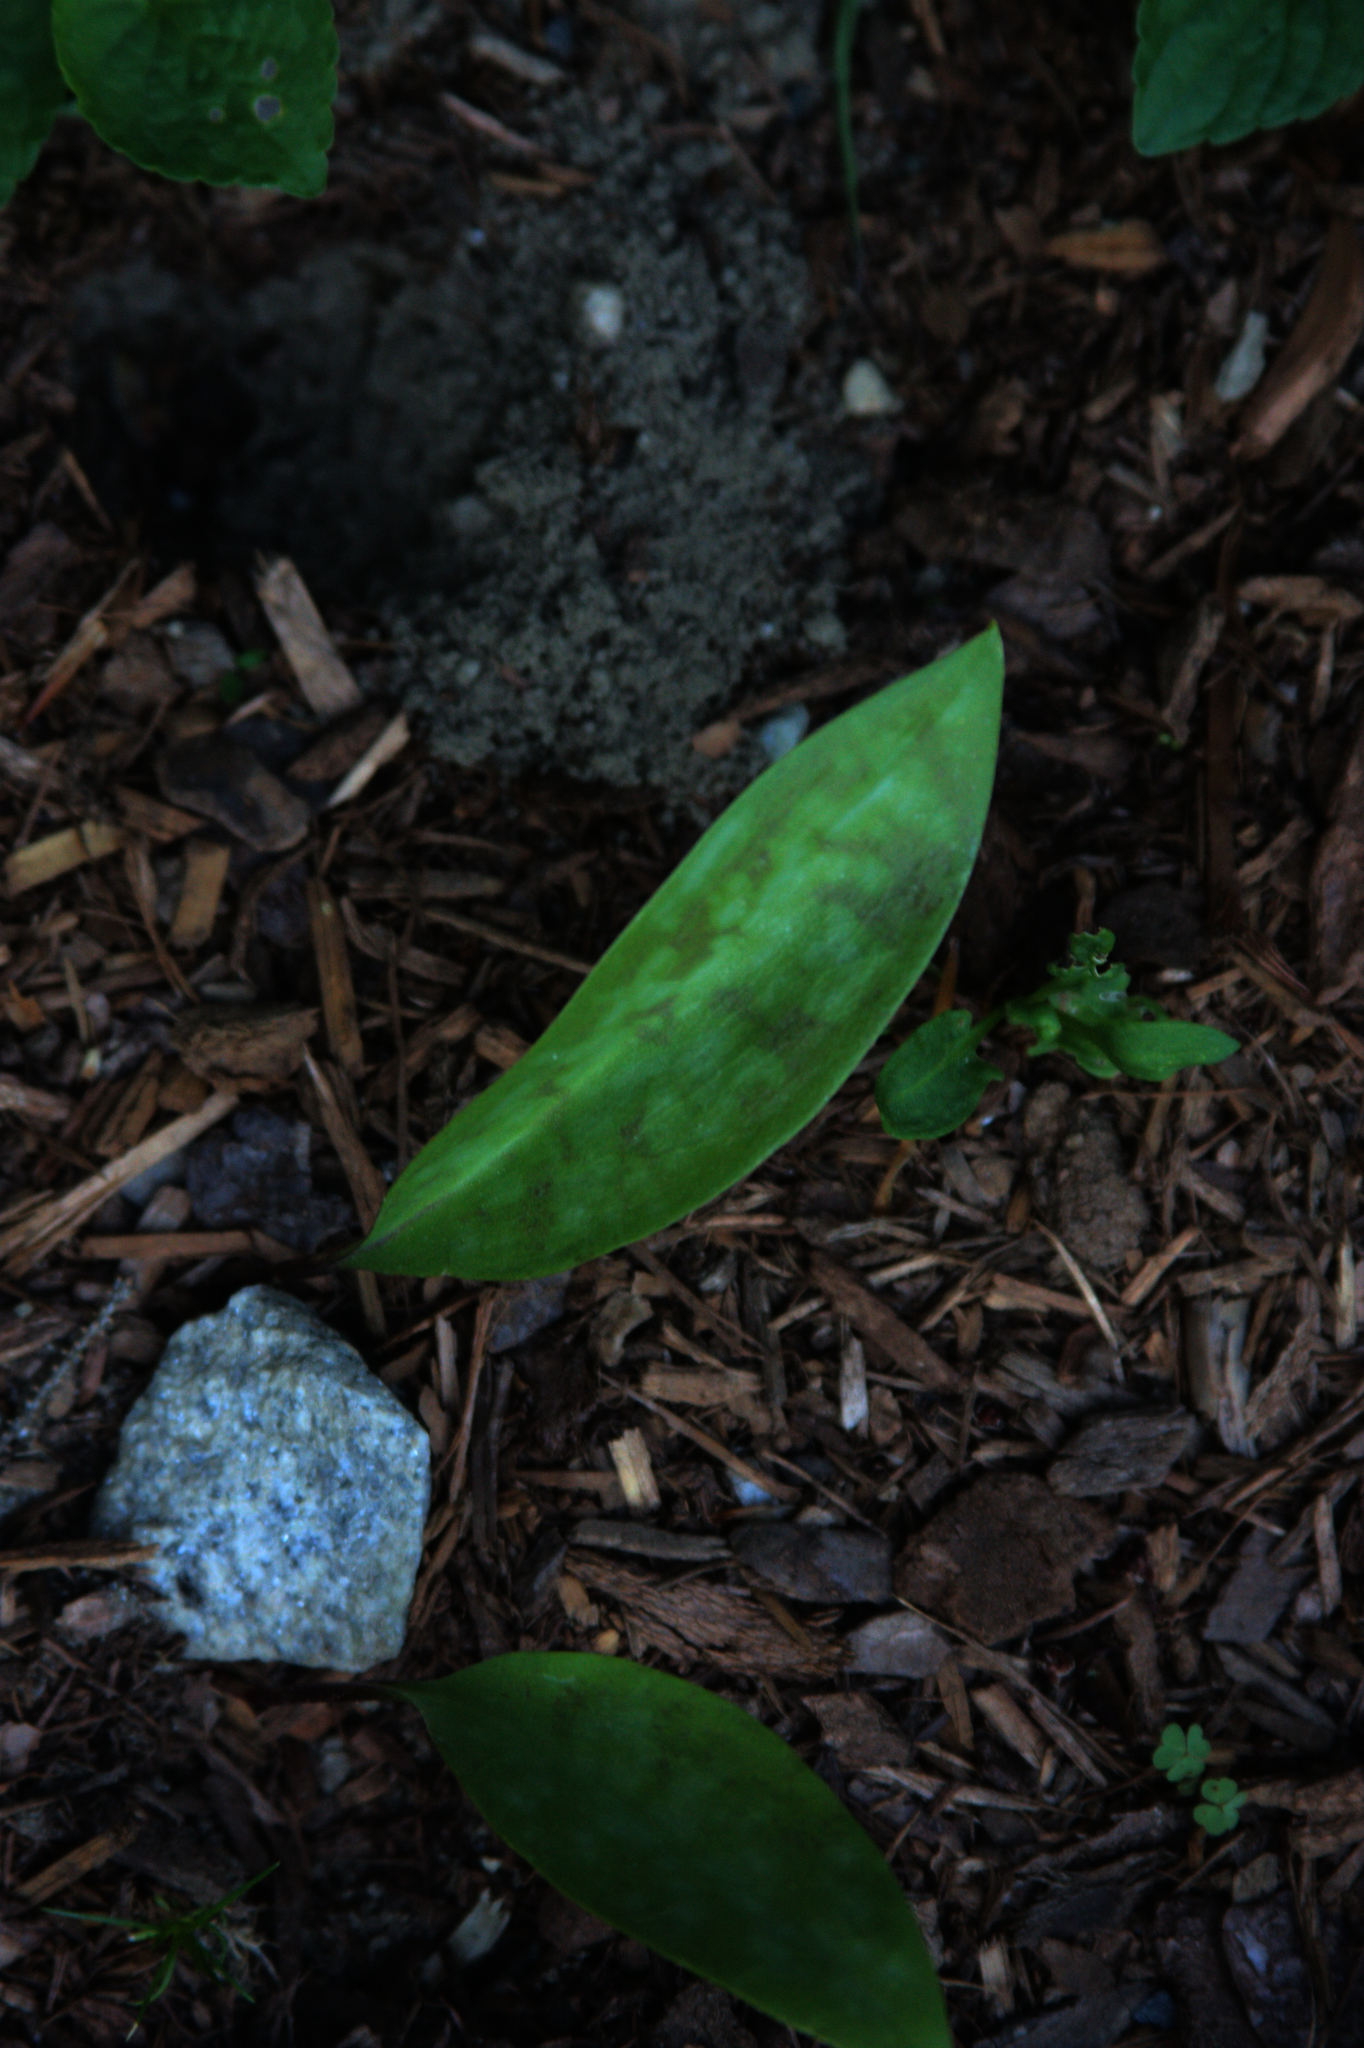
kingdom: Plantae
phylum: Tracheophyta
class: Liliopsida
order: Liliales
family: Liliaceae
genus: Erythronium
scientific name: Erythronium americanum
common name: Yellow adder's-tongue
